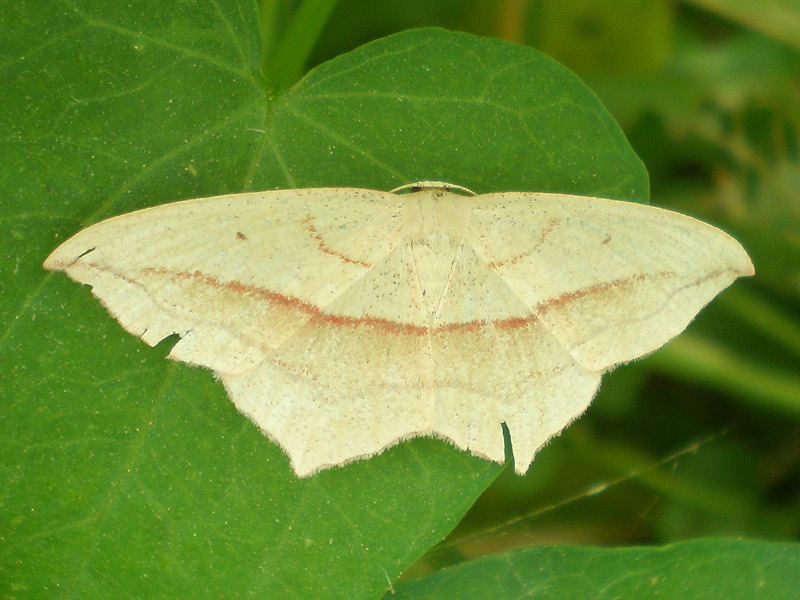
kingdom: Animalia
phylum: Arthropoda
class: Insecta
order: Lepidoptera
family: Geometridae
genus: Timandra
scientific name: Timandra comae
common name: Blood-vein
